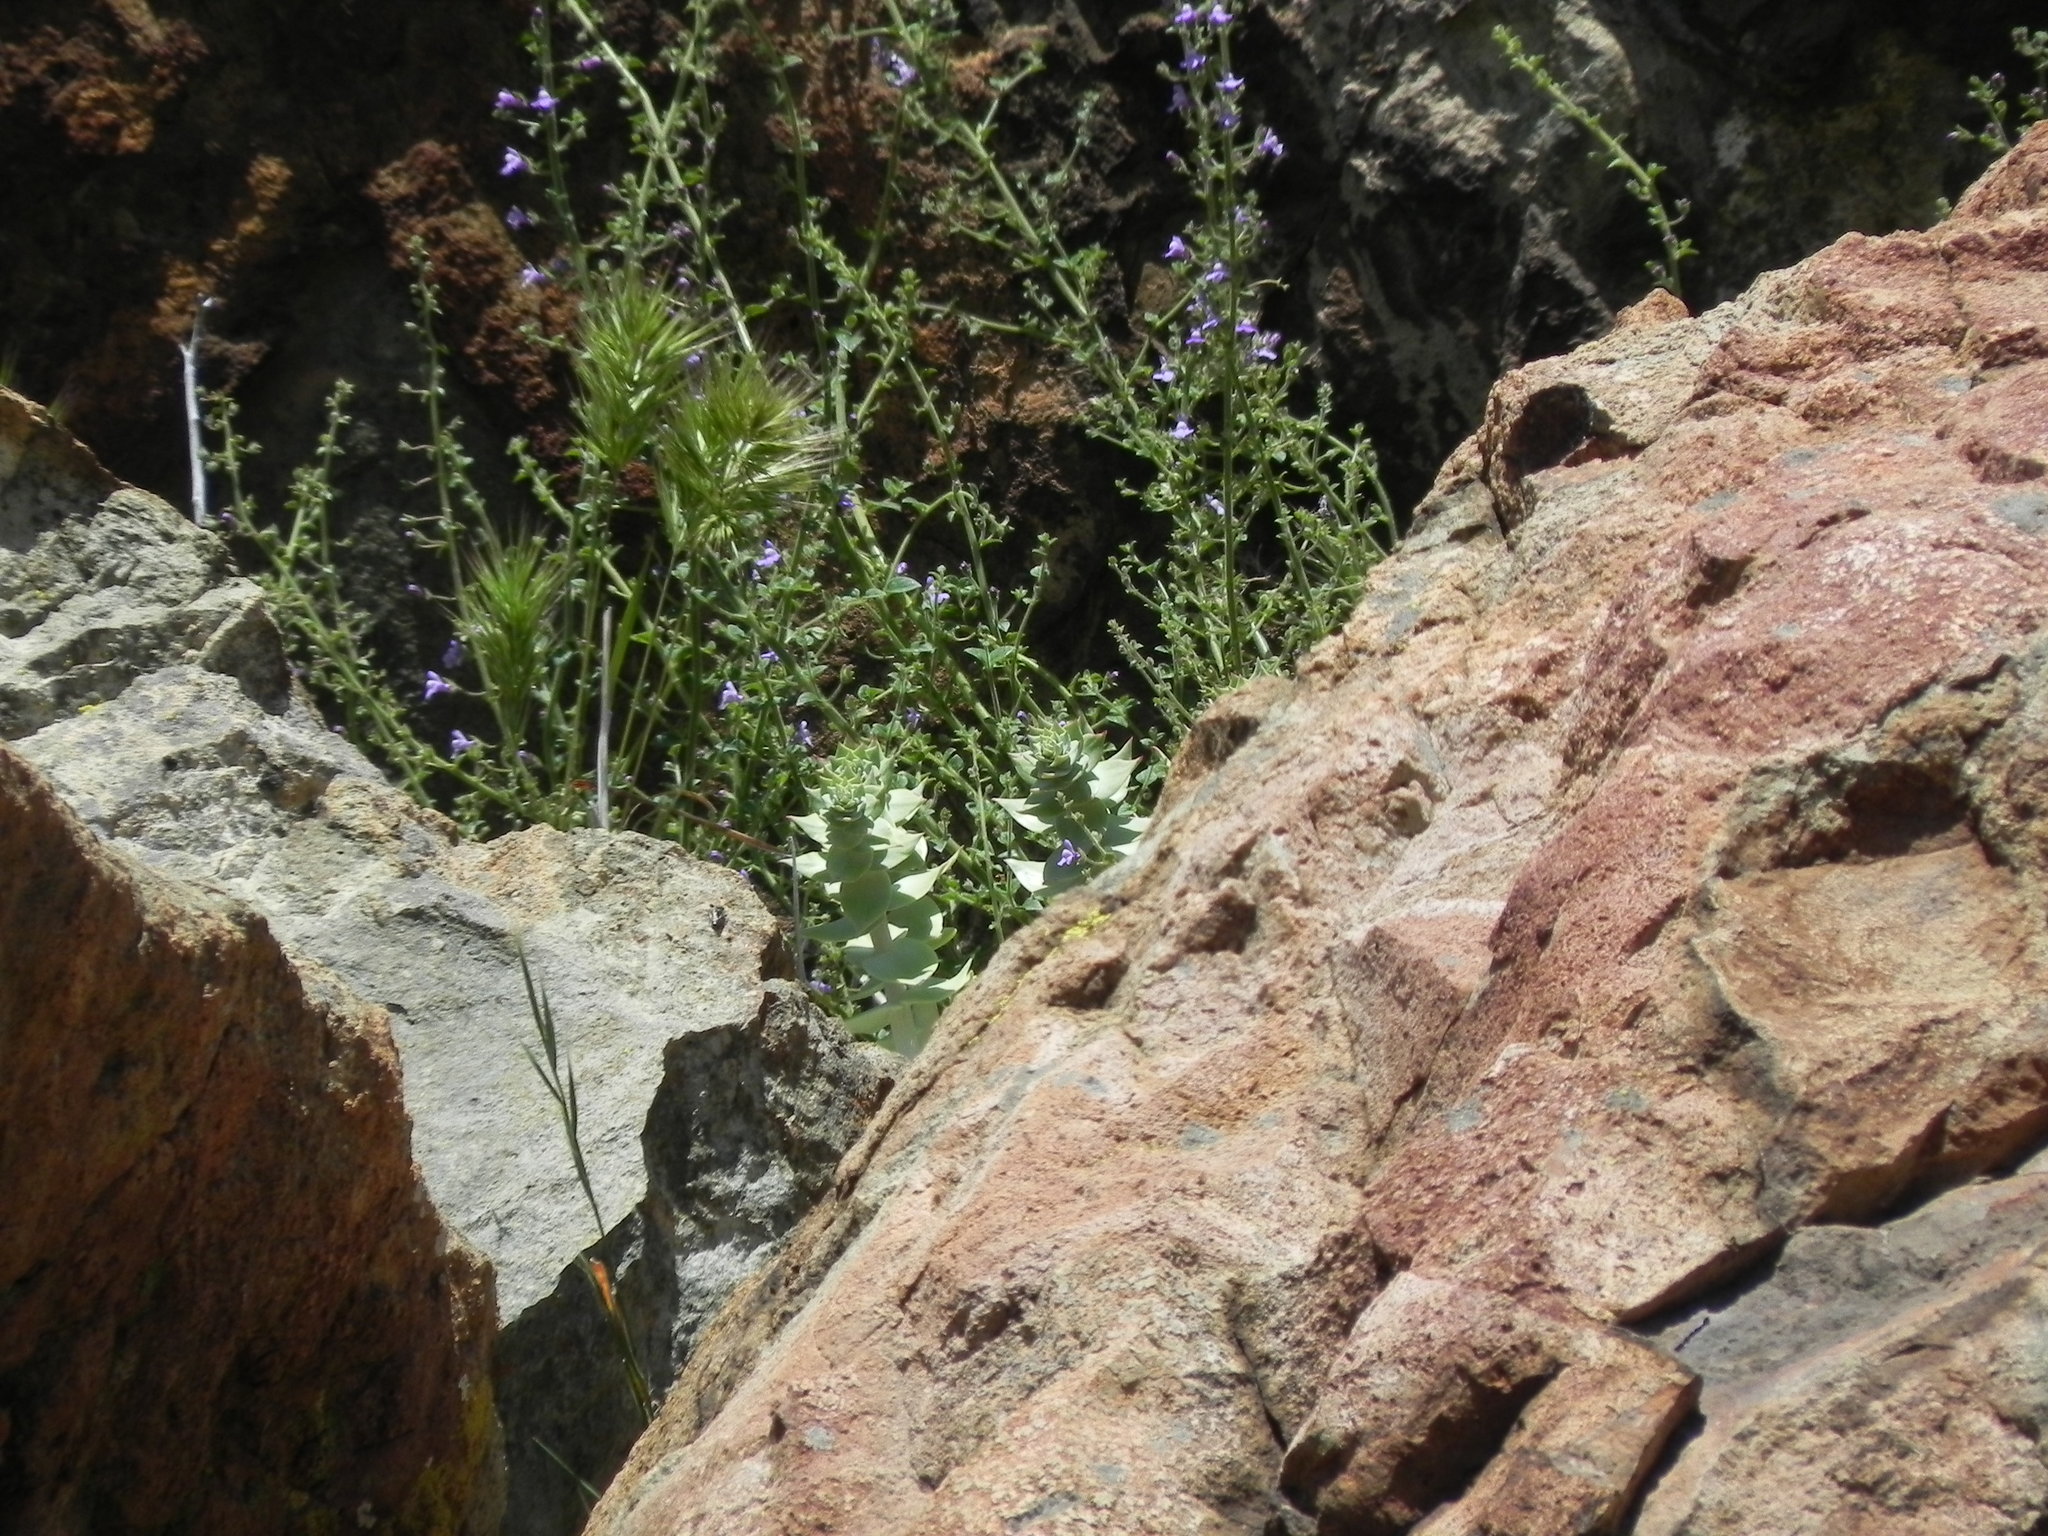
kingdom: Plantae
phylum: Tracheophyta
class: Magnoliopsida
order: Saxifragales
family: Crassulaceae
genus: Dudleya
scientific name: Dudleya pulverulenta
